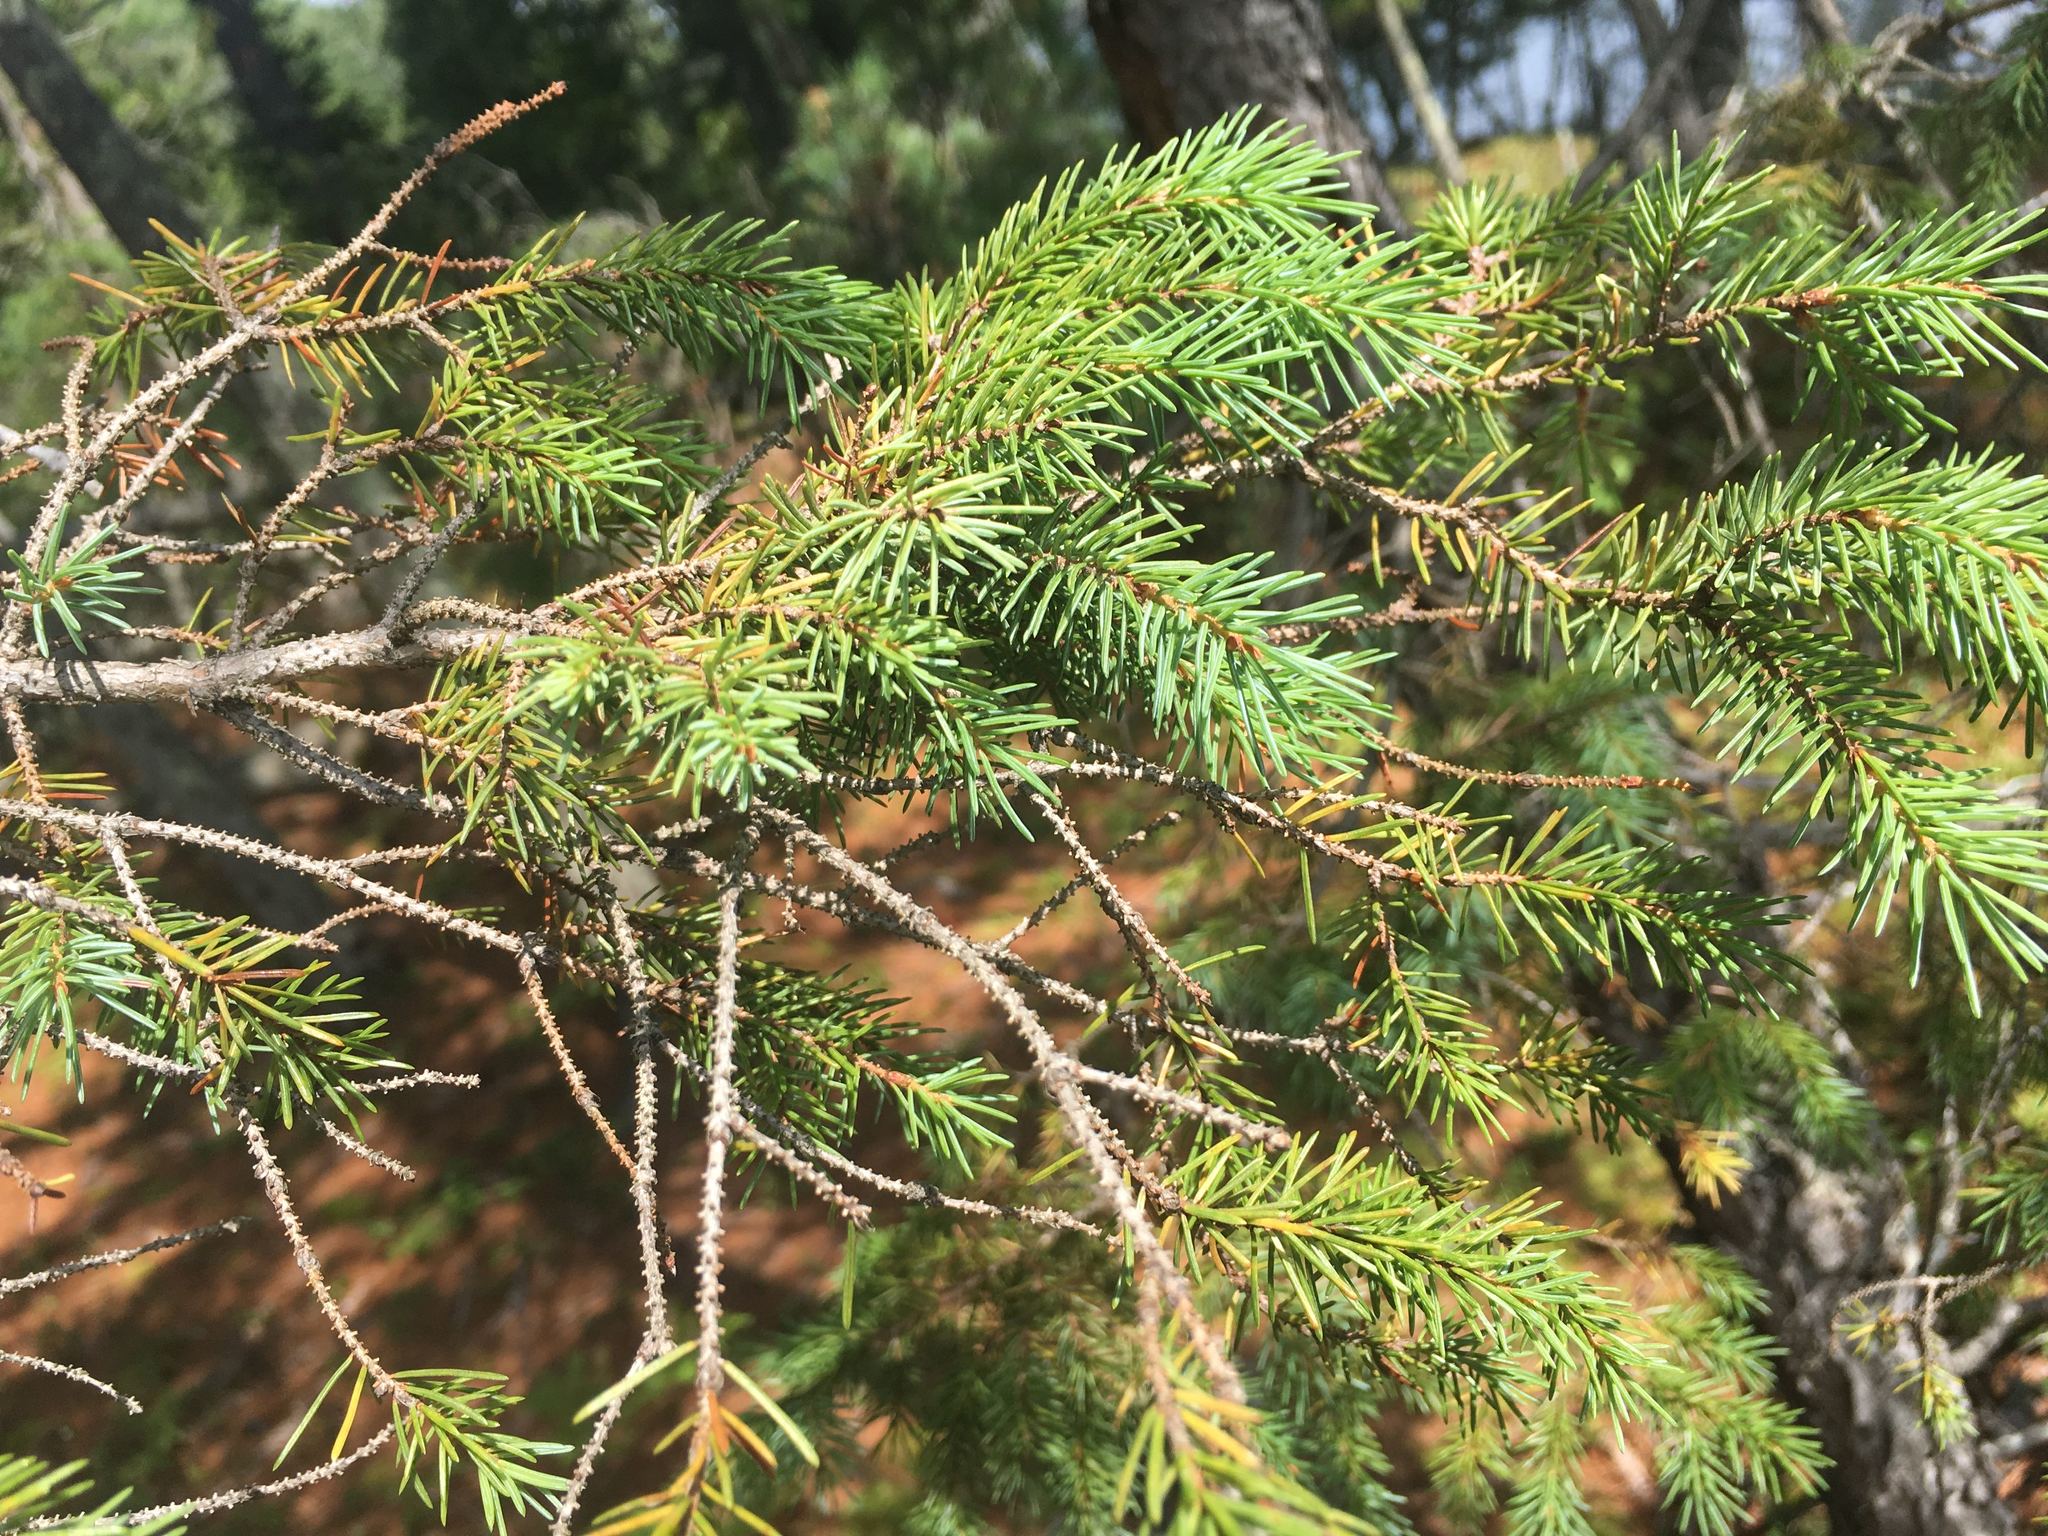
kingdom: Plantae
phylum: Tracheophyta
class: Pinopsida
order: Pinales
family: Pinaceae
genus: Picea
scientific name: Picea mariana
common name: Black spruce
